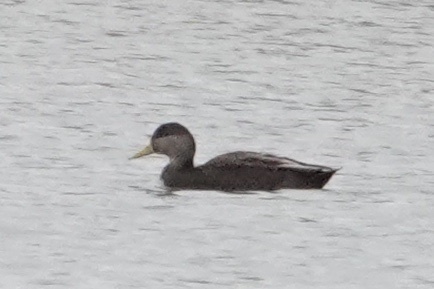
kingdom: Animalia
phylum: Chordata
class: Aves
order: Anseriformes
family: Anatidae
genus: Anas
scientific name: Anas rubripes
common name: American black duck
